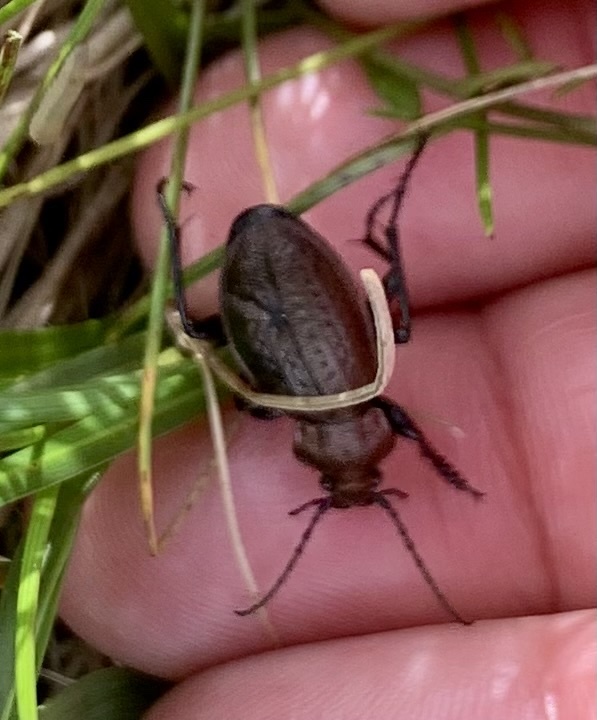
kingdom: Animalia
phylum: Arthropoda
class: Insecta
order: Coleoptera
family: Carabidae
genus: Carabus
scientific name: Carabus arvensis
